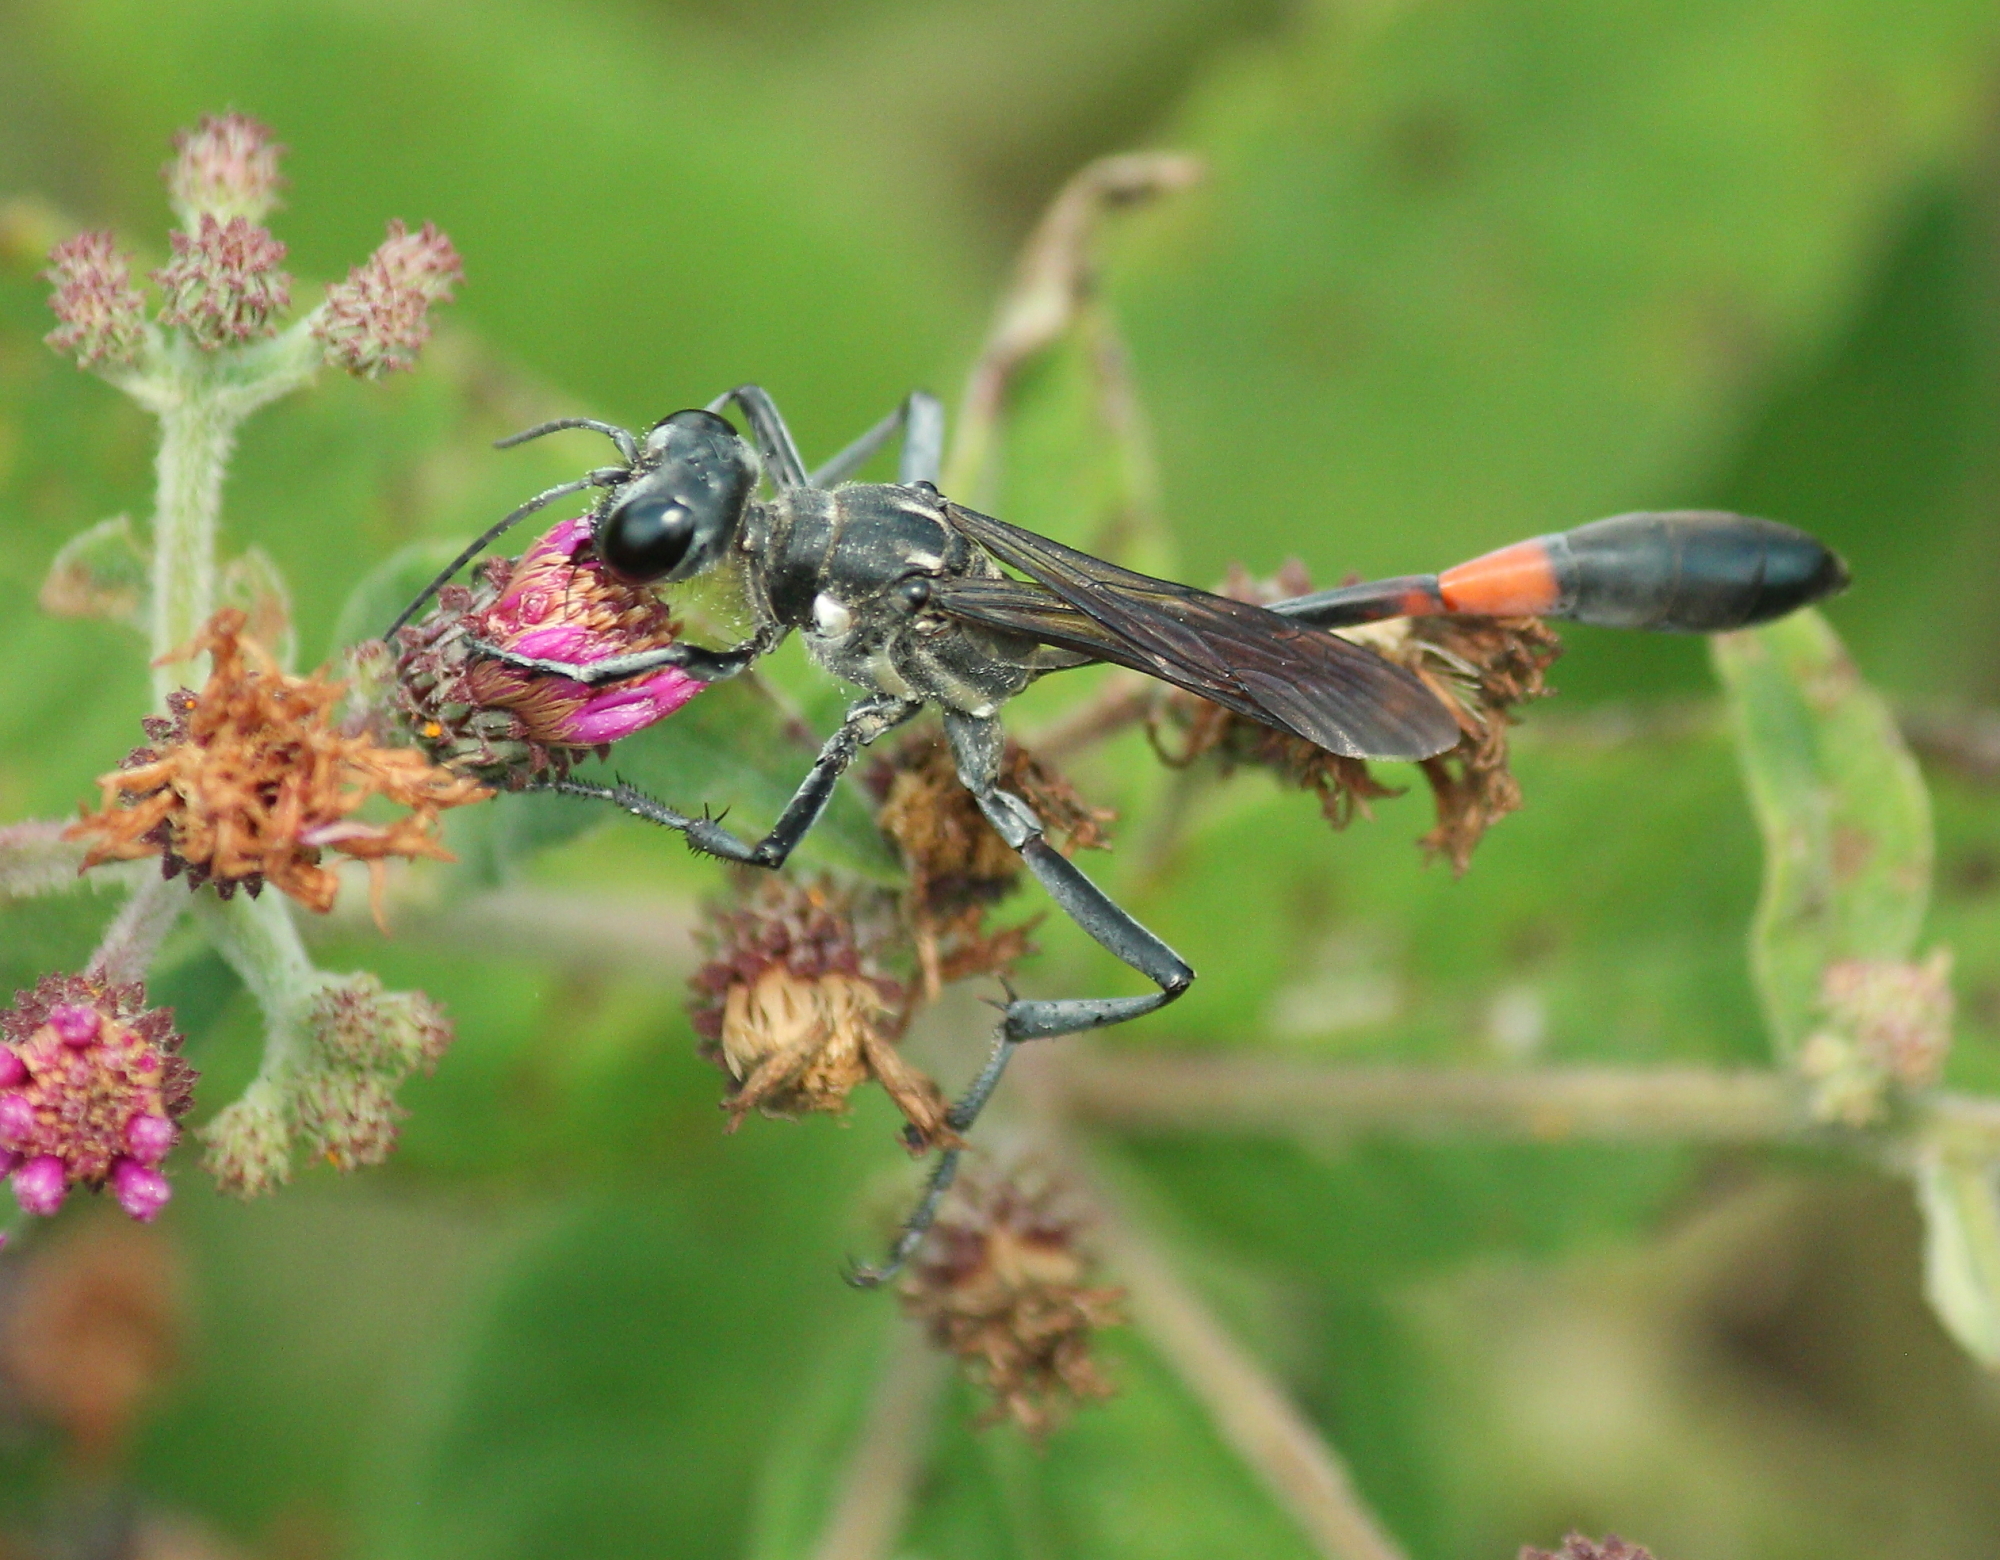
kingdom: Animalia
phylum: Arthropoda
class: Insecta
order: Hymenoptera
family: Sphecidae
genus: Ammophila
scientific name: Ammophila procera
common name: Common thread-waisted wasp
